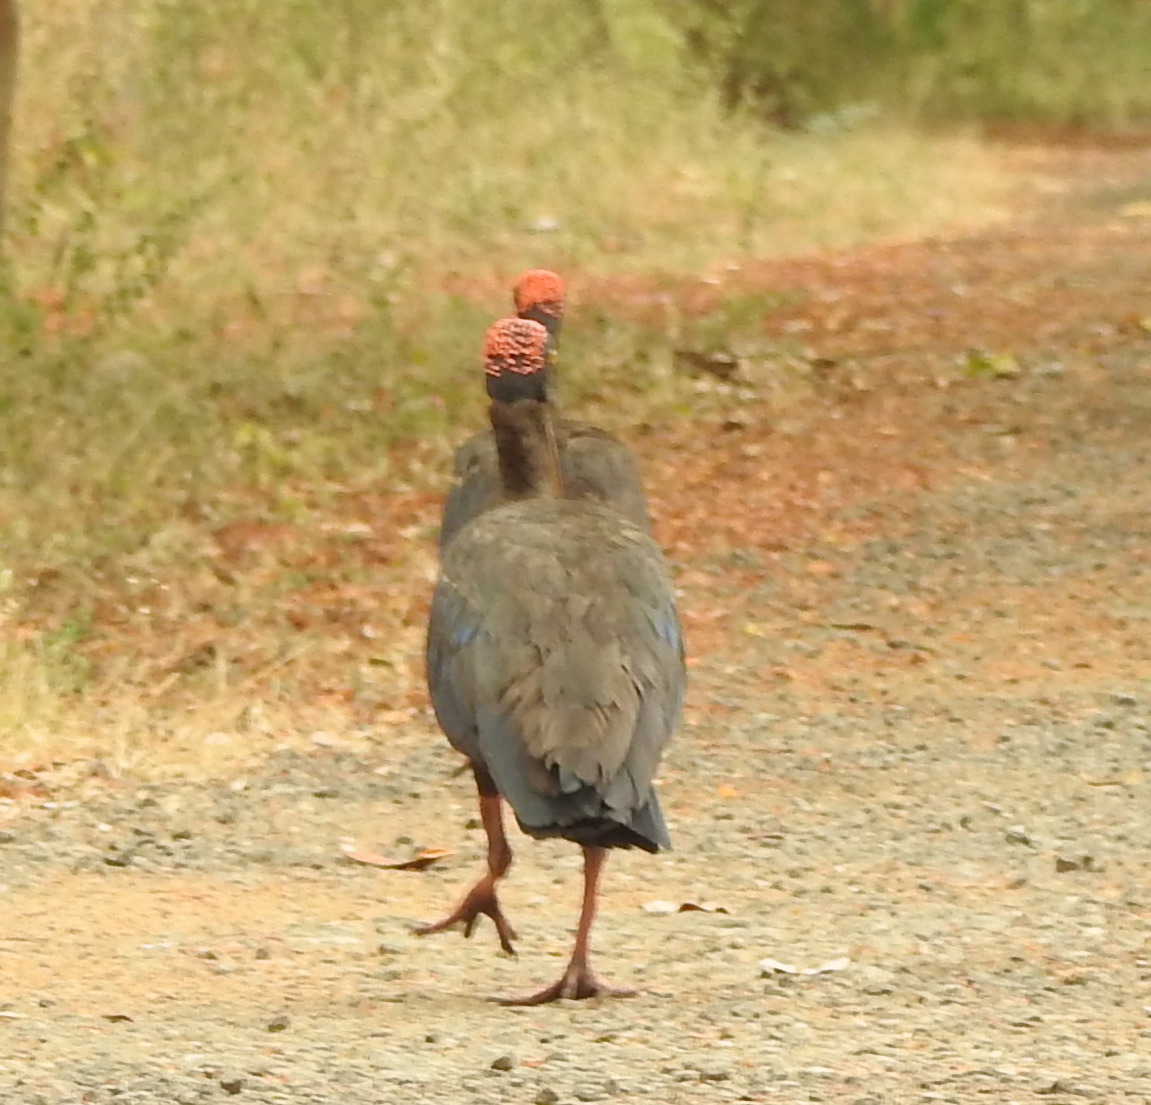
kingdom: Animalia
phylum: Chordata
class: Aves
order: Pelecaniformes
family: Threskiornithidae
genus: Pseudibis
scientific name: Pseudibis papillosa
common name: Red-naped ibis
